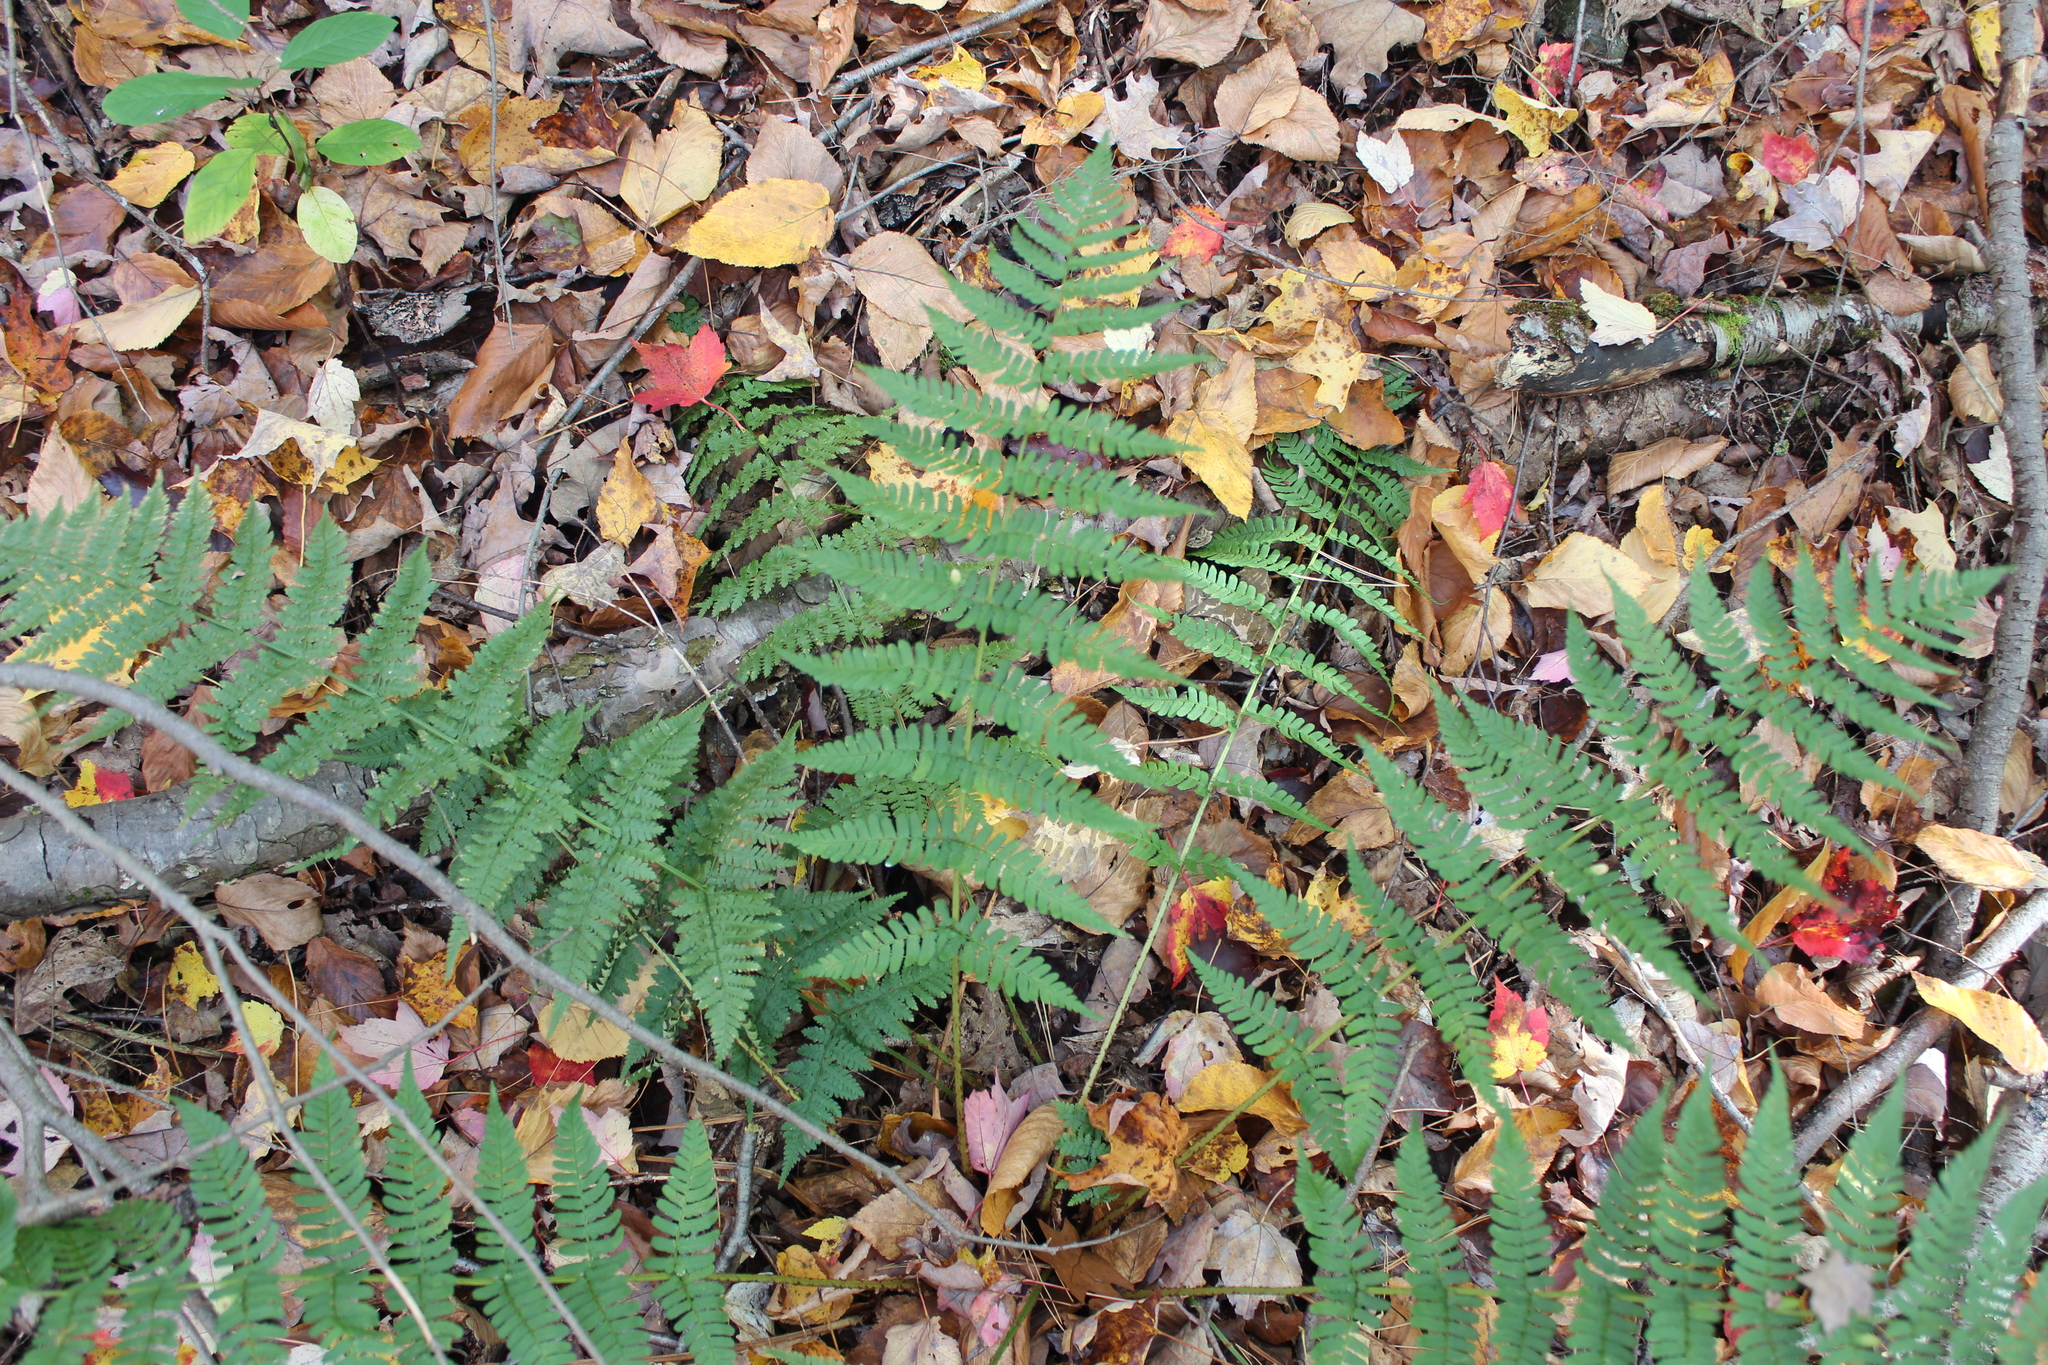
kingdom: Plantae
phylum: Tracheophyta
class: Polypodiopsida
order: Polypodiales
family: Dryopteridaceae
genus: Dryopteris
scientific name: Dryopteris marginalis
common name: Marginal wood fern
